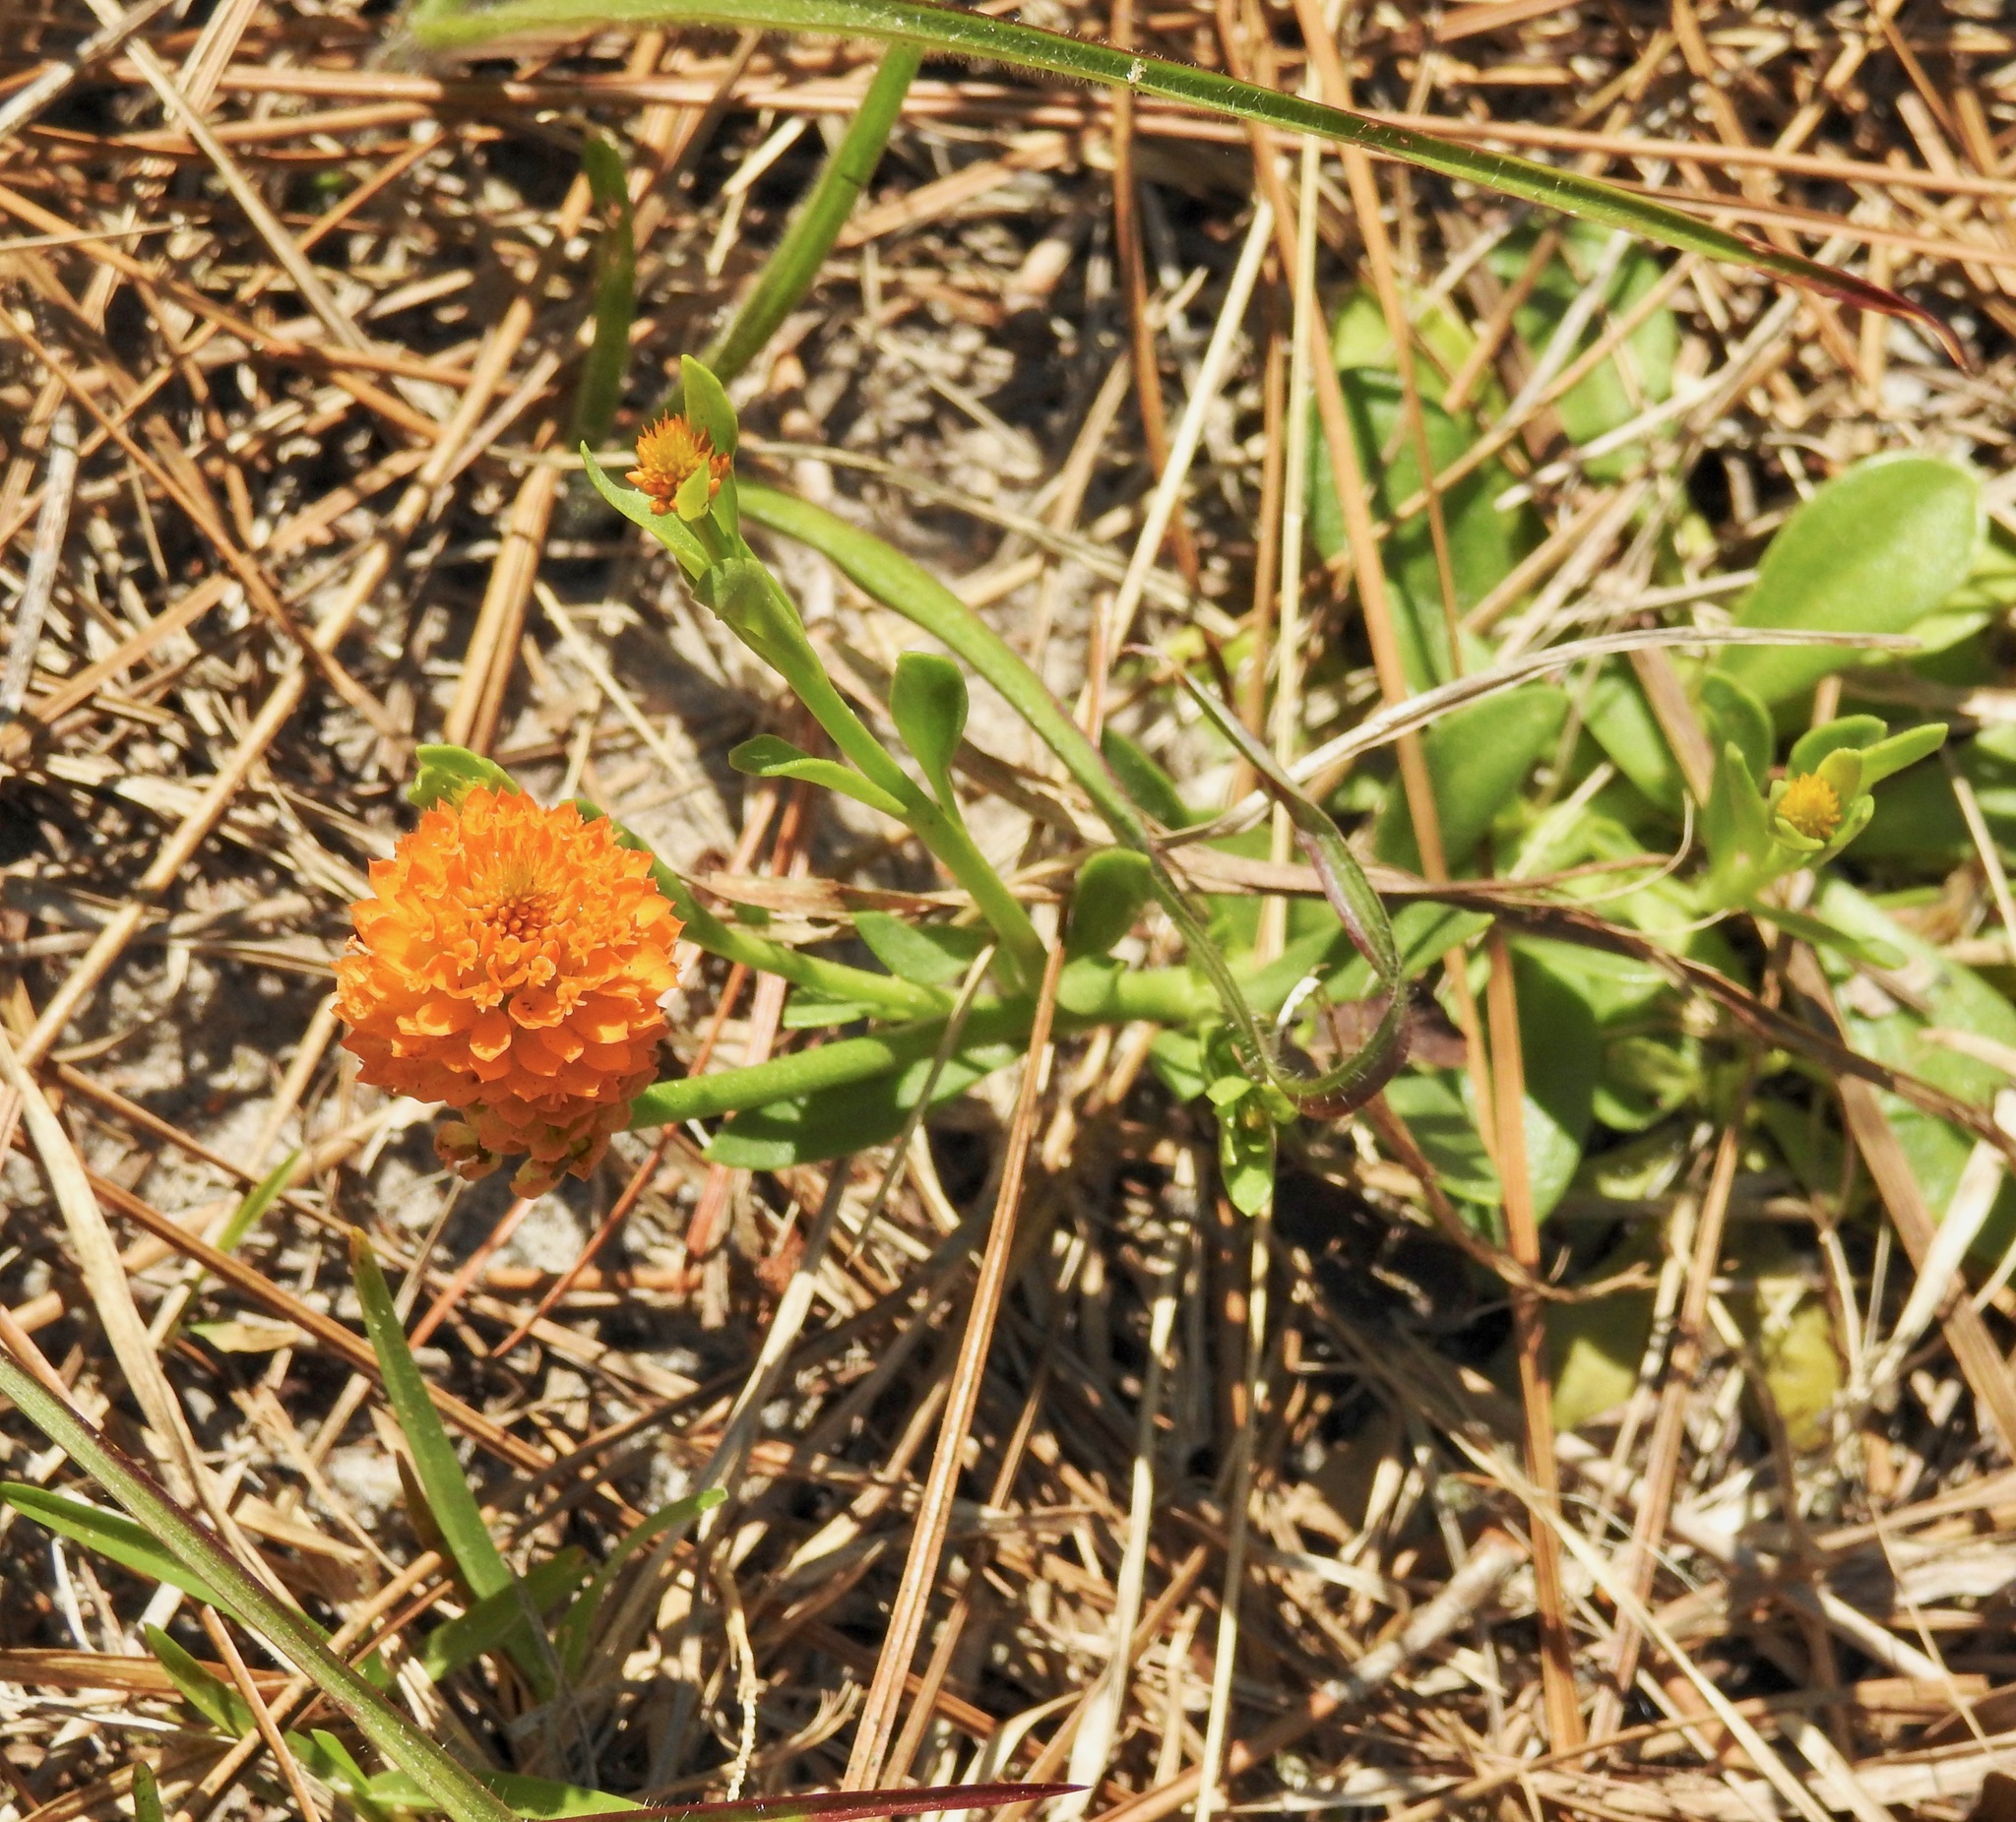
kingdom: Plantae
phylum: Tracheophyta
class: Magnoliopsida
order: Fabales
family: Polygalaceae
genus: Polygala
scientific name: Polygala lutea
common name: Orange milkwort
